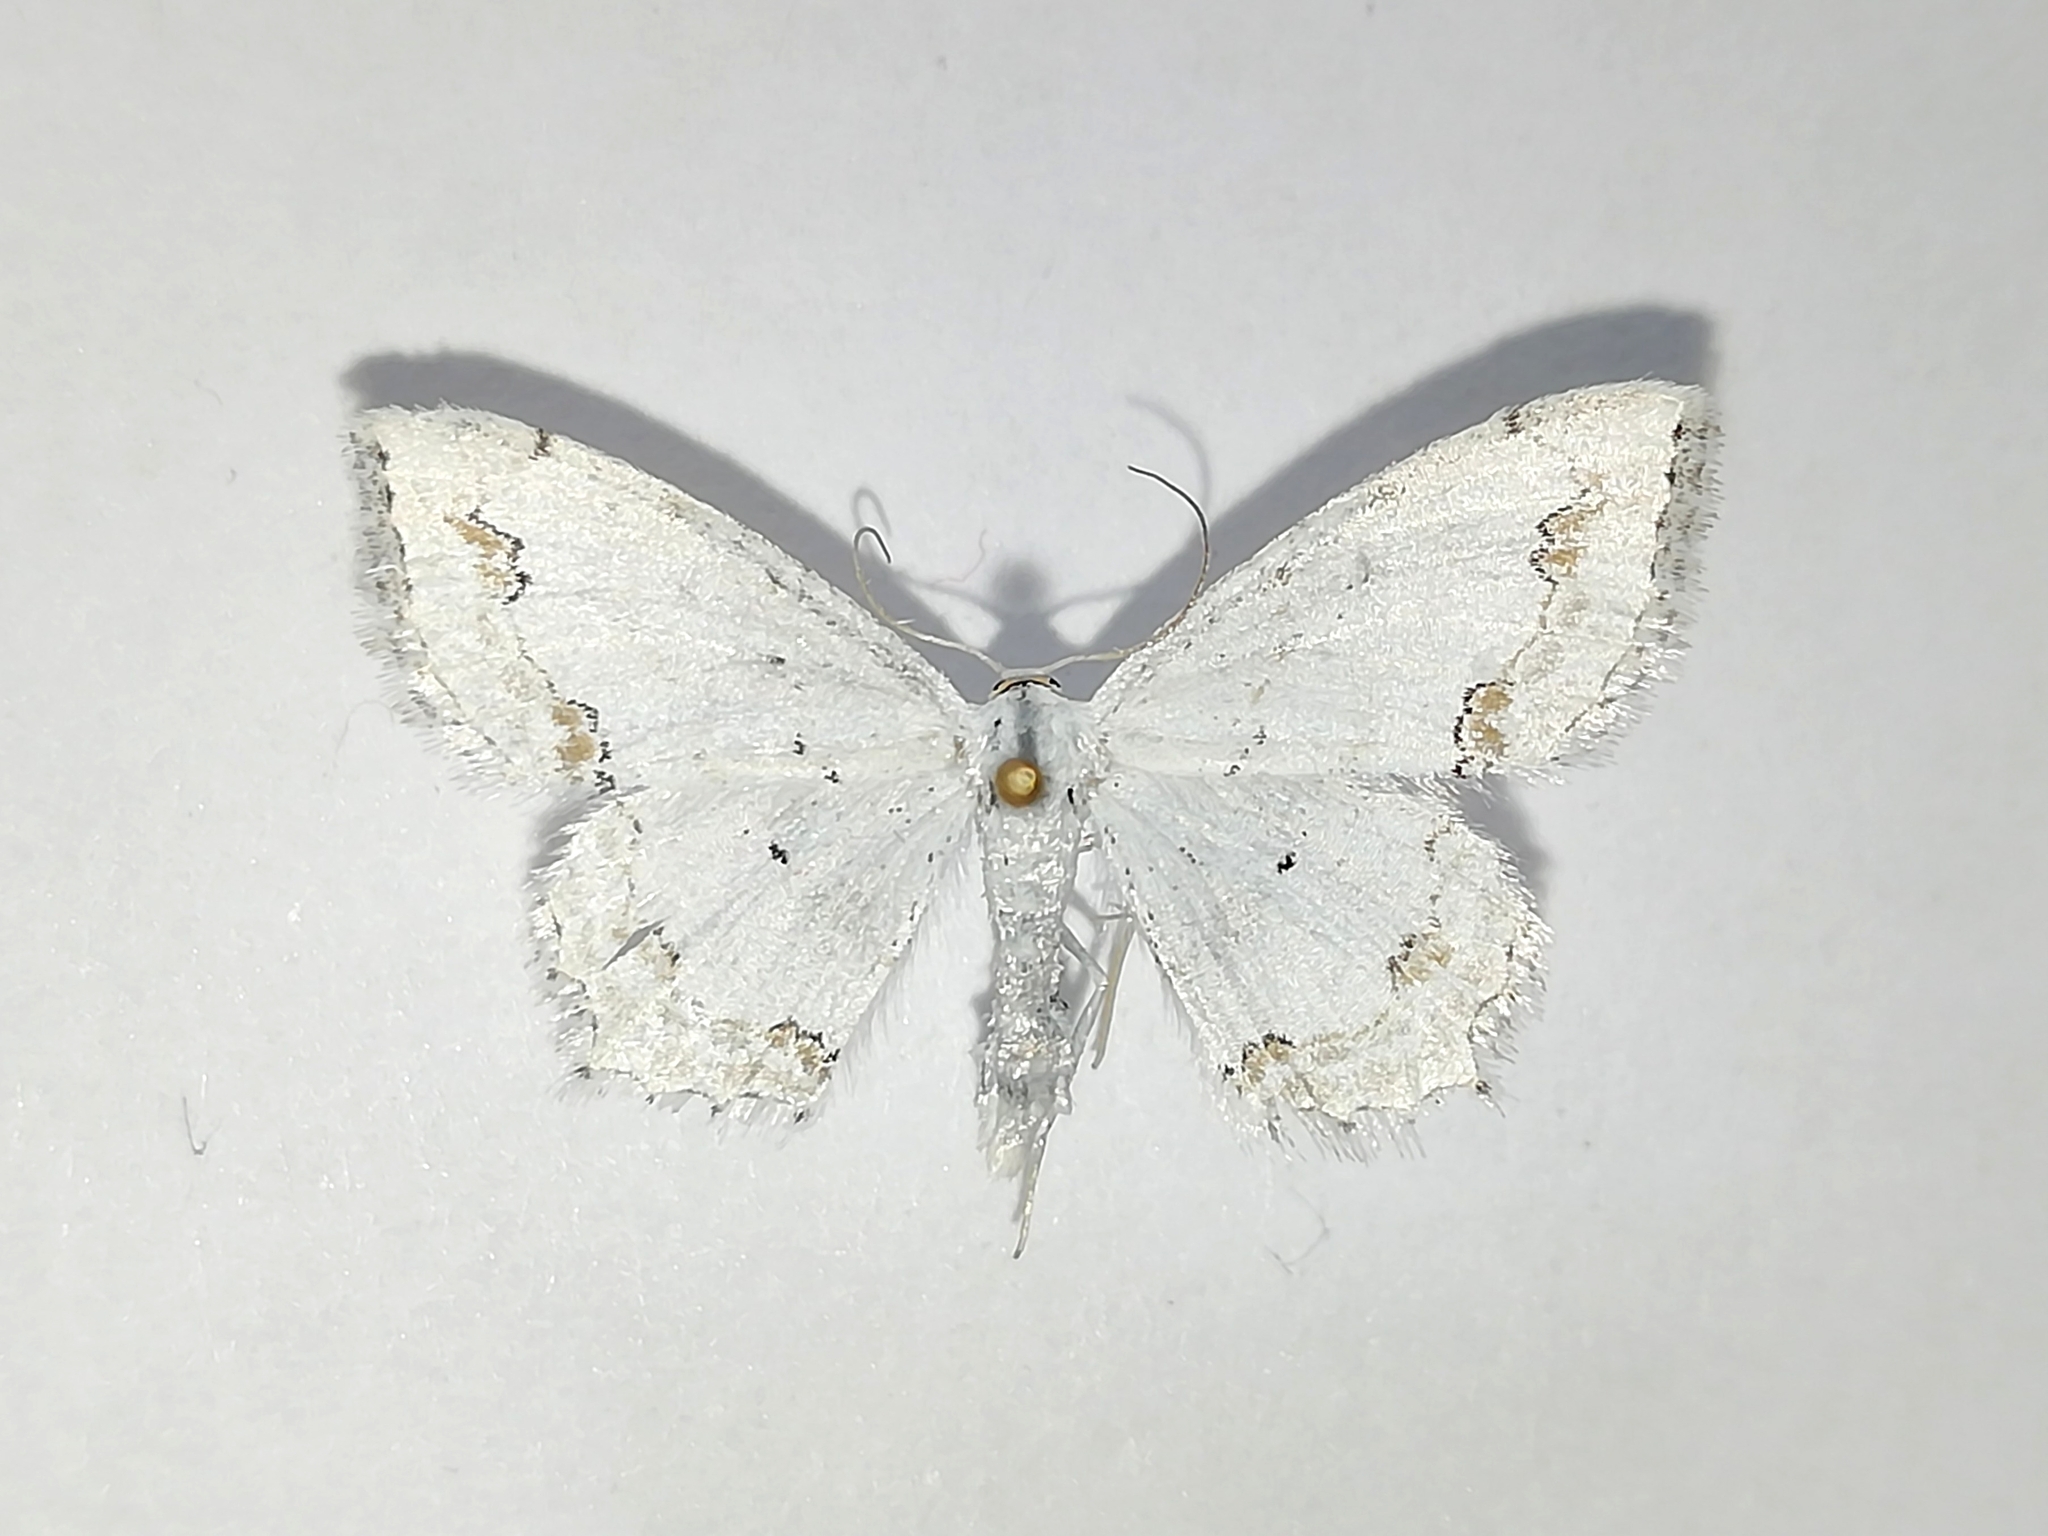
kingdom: Animalia
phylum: Arthropoda
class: Insecta
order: Lepidoptera
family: Geometridae
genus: Scopula
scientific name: Scopula ornata
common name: Lace border
